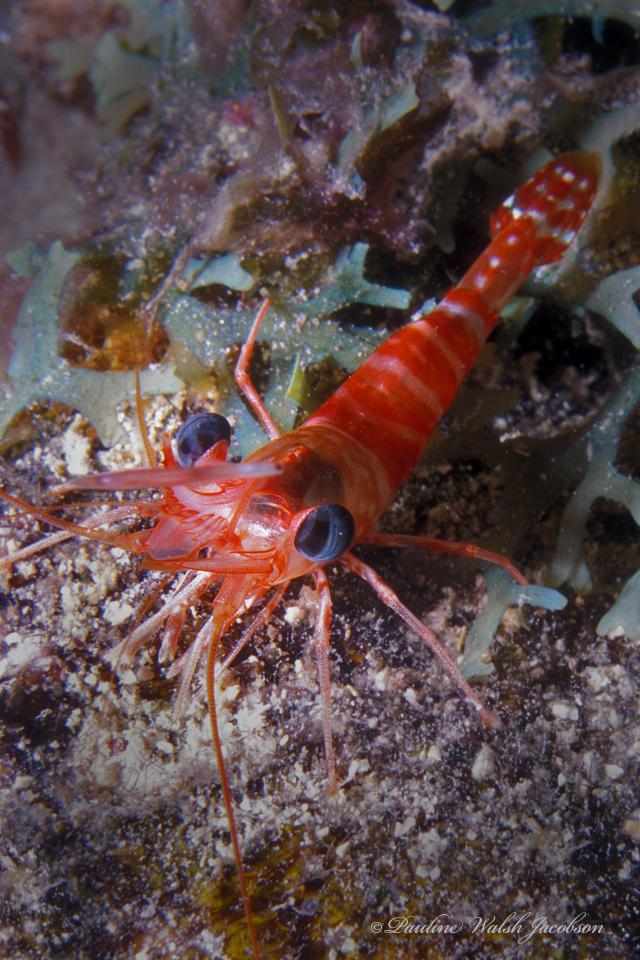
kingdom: Animalia
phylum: Arthropoda
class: Malacostraca
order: Decapoda
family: Rhynchocinetidae
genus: Cinetorhynchus
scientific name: Cinetorhynchus manningi
